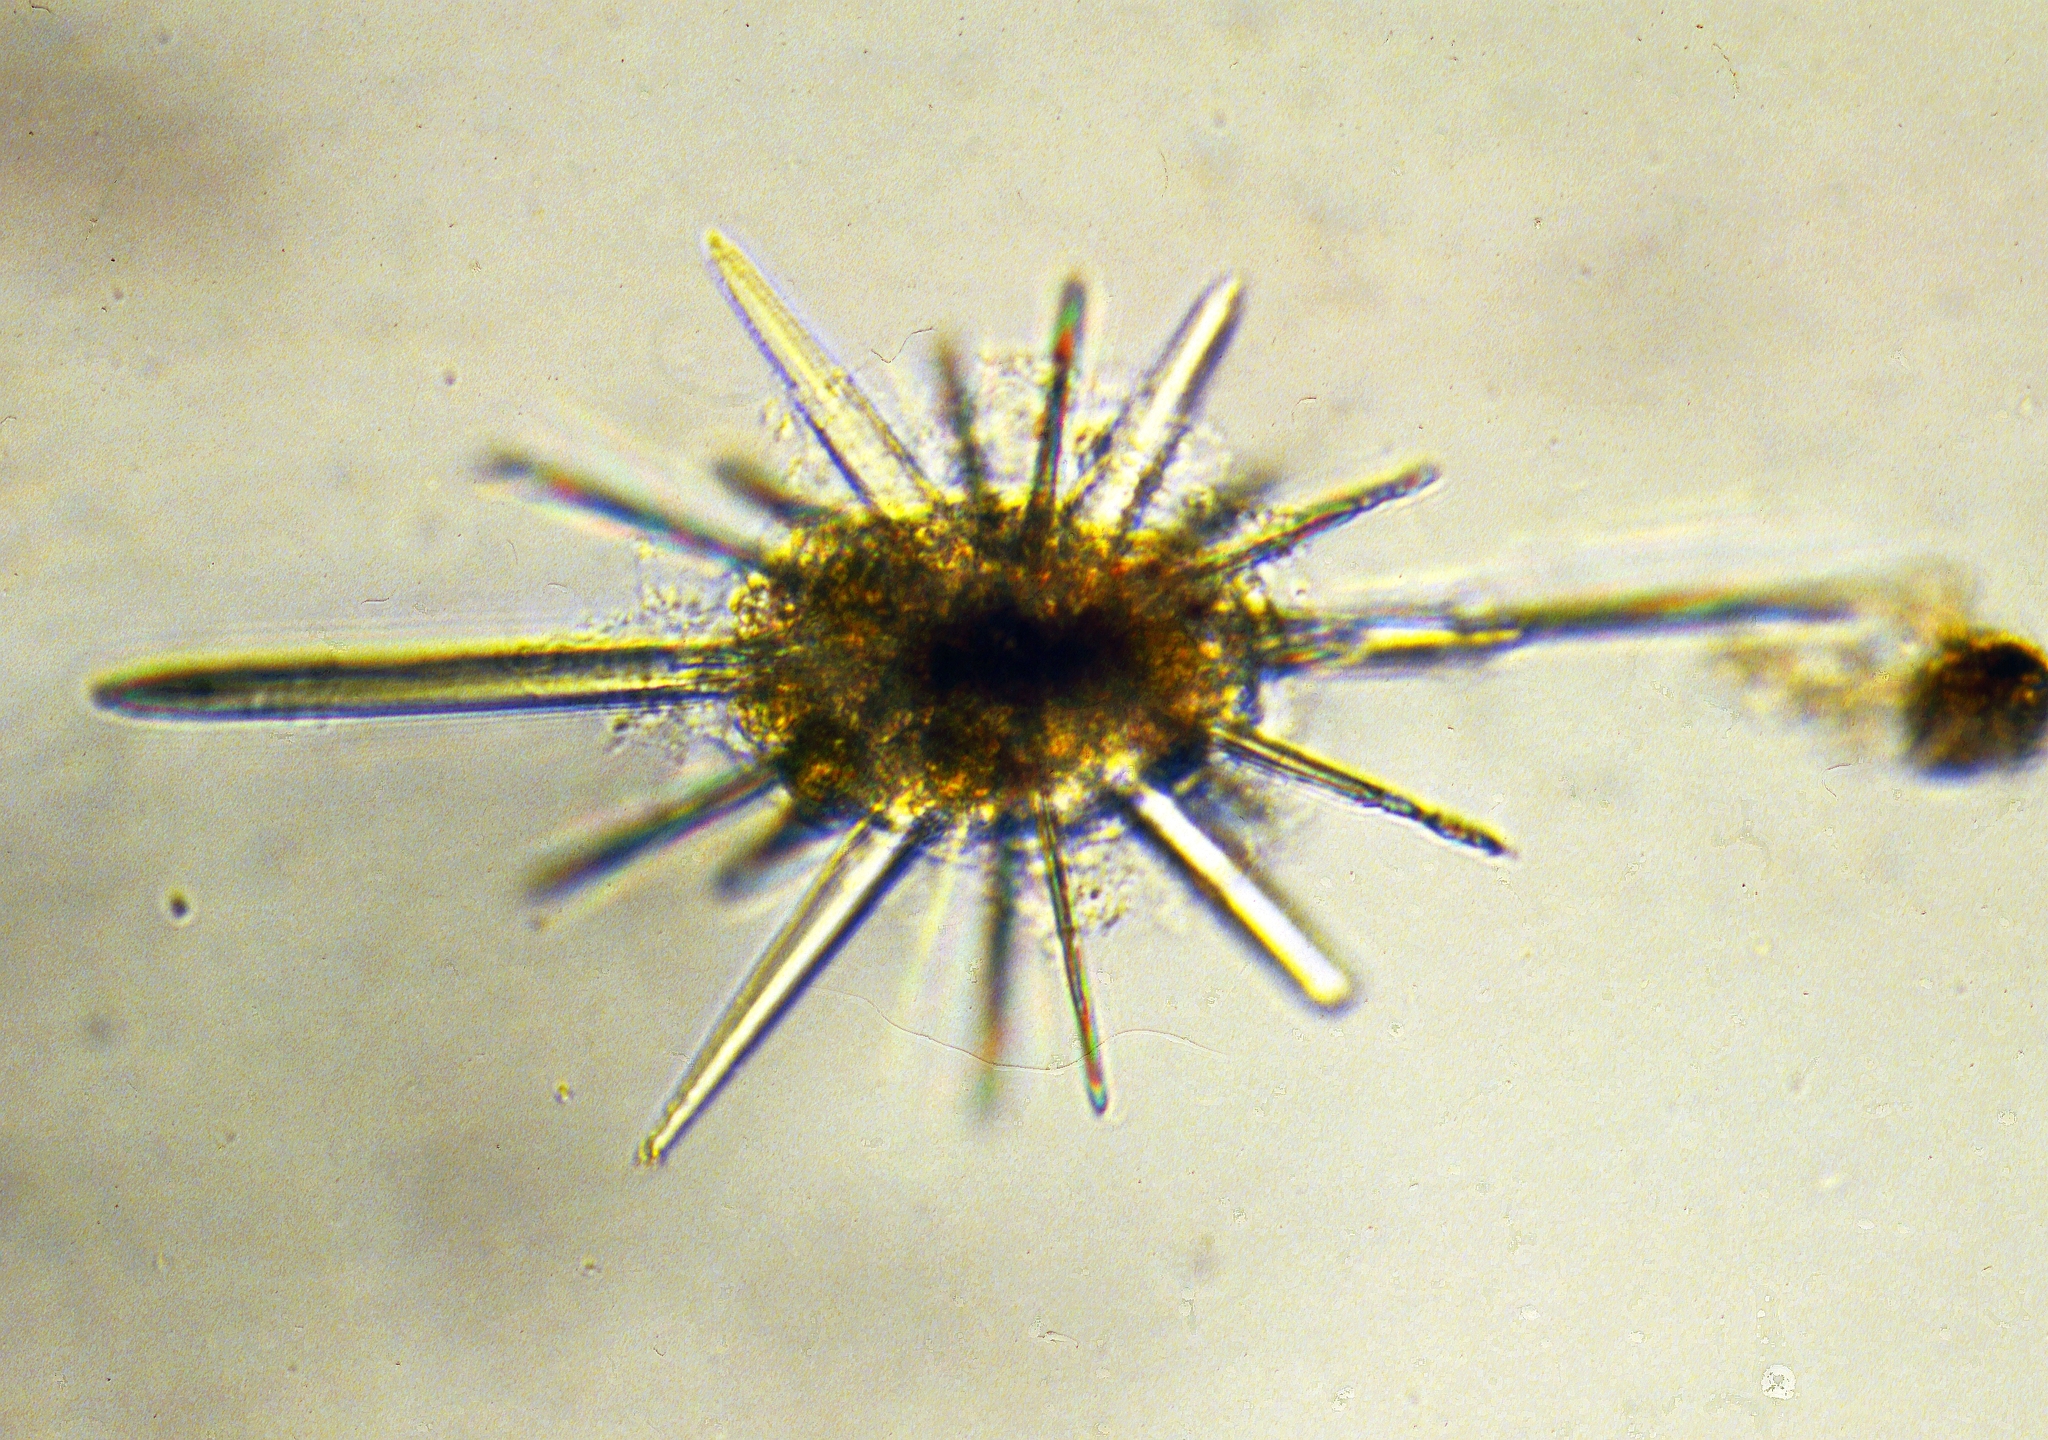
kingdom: Protozoa
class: Acantharia
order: Arthracanthida
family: Phyllostauridae
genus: Amphistaurus
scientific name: Amphistaurus complanatus
